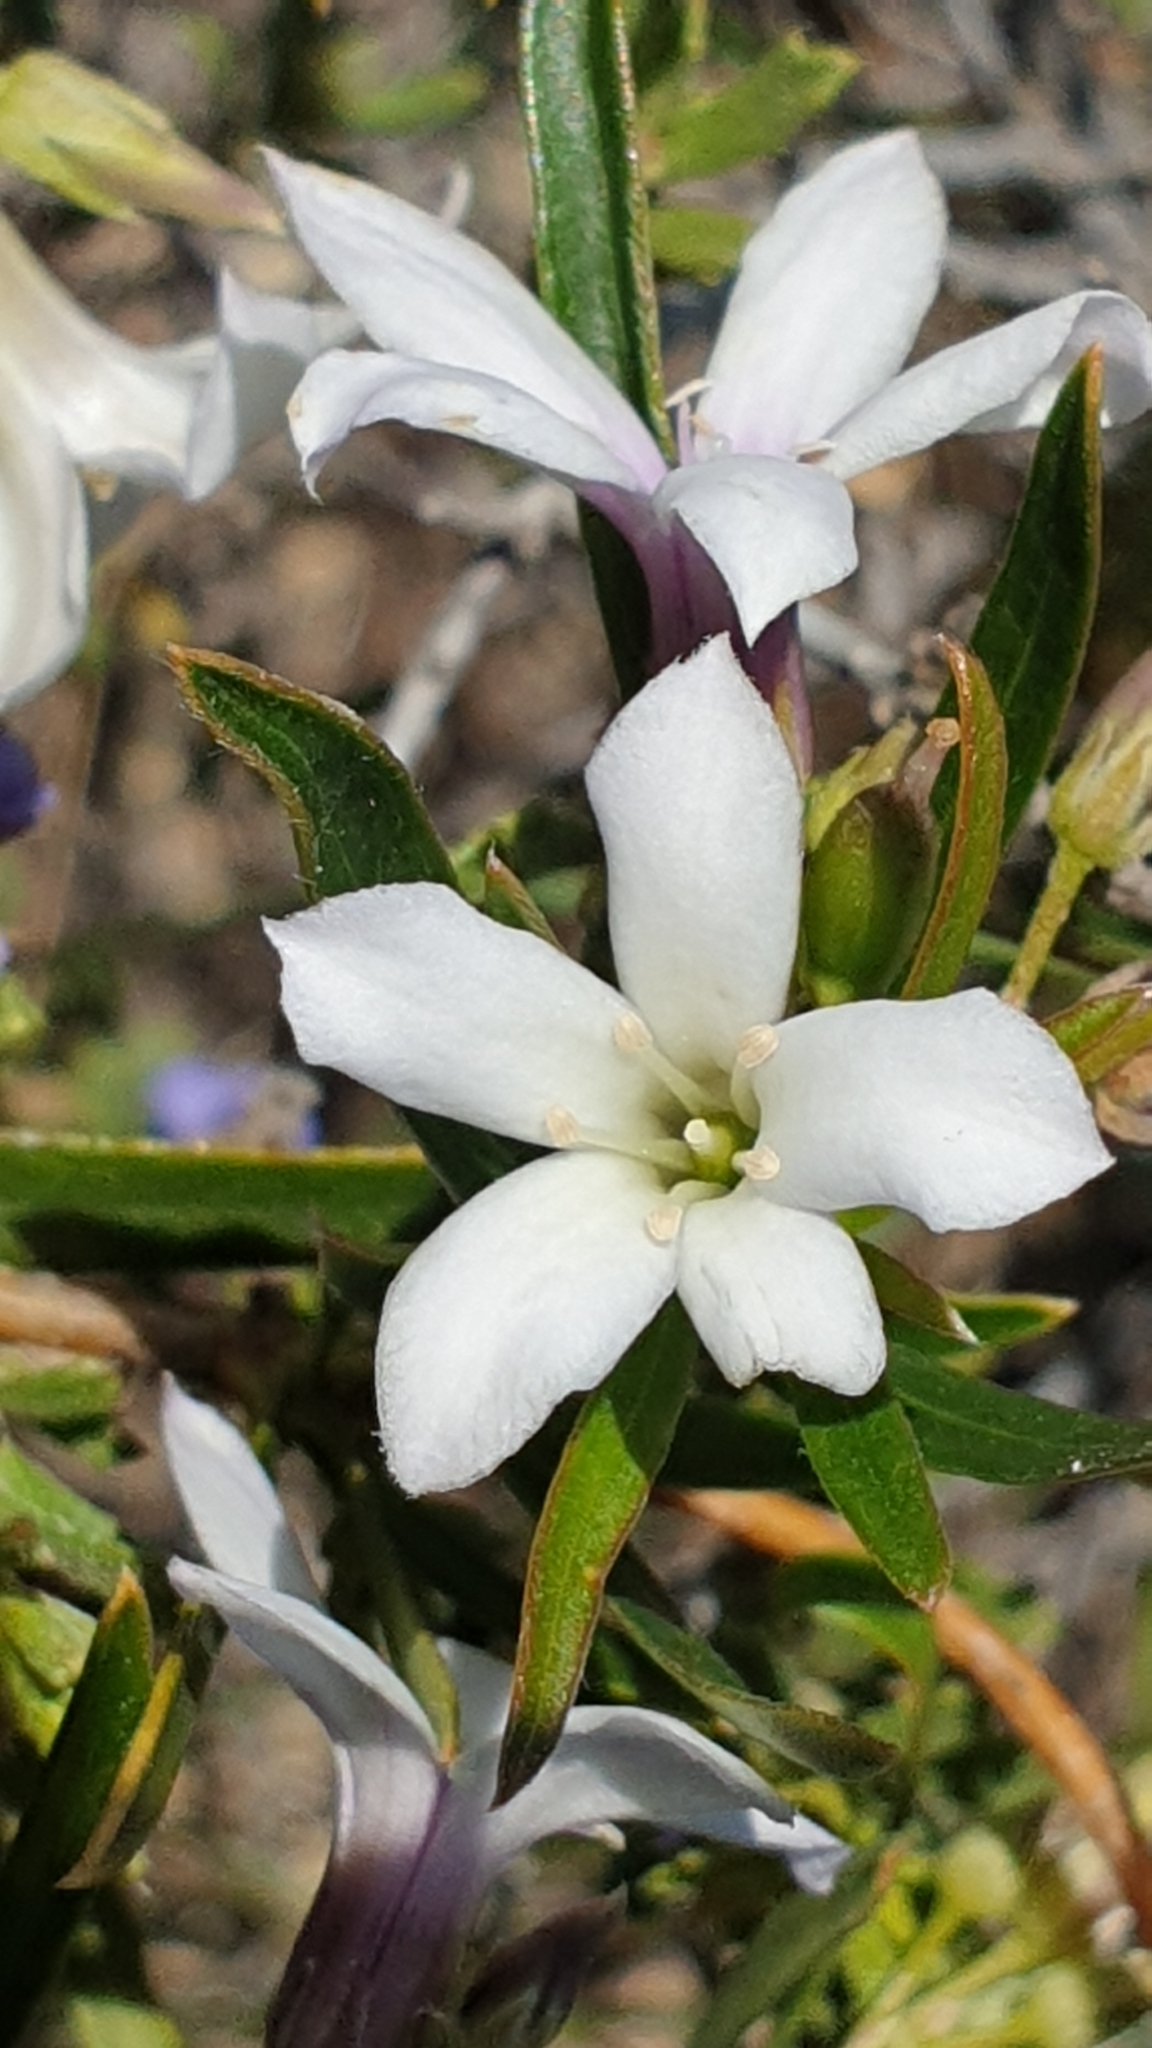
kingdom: Plantae
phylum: Tracheophyta
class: Magnoliopsida
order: Apiales
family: Pittosporaceae
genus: Billardiera
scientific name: Billardiera cymosa
